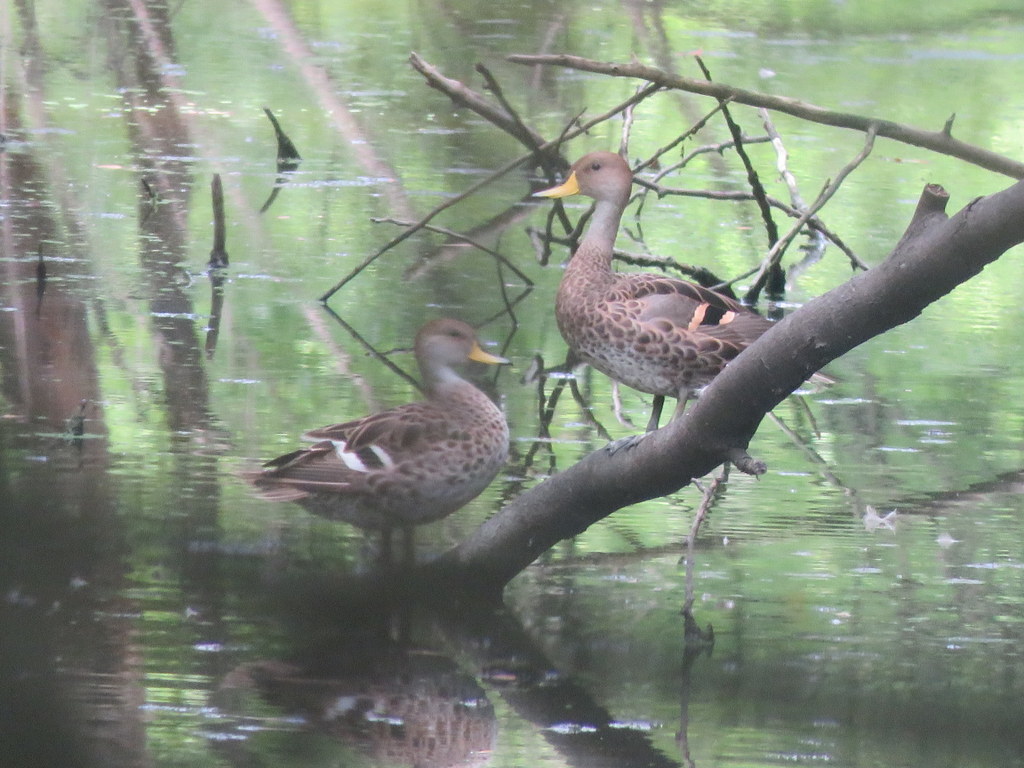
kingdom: Animalia
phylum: Chordata
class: Aves
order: Anseriformes
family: Anatidae
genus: Anas
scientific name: Anas georgica
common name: Yellow-billed pintail
